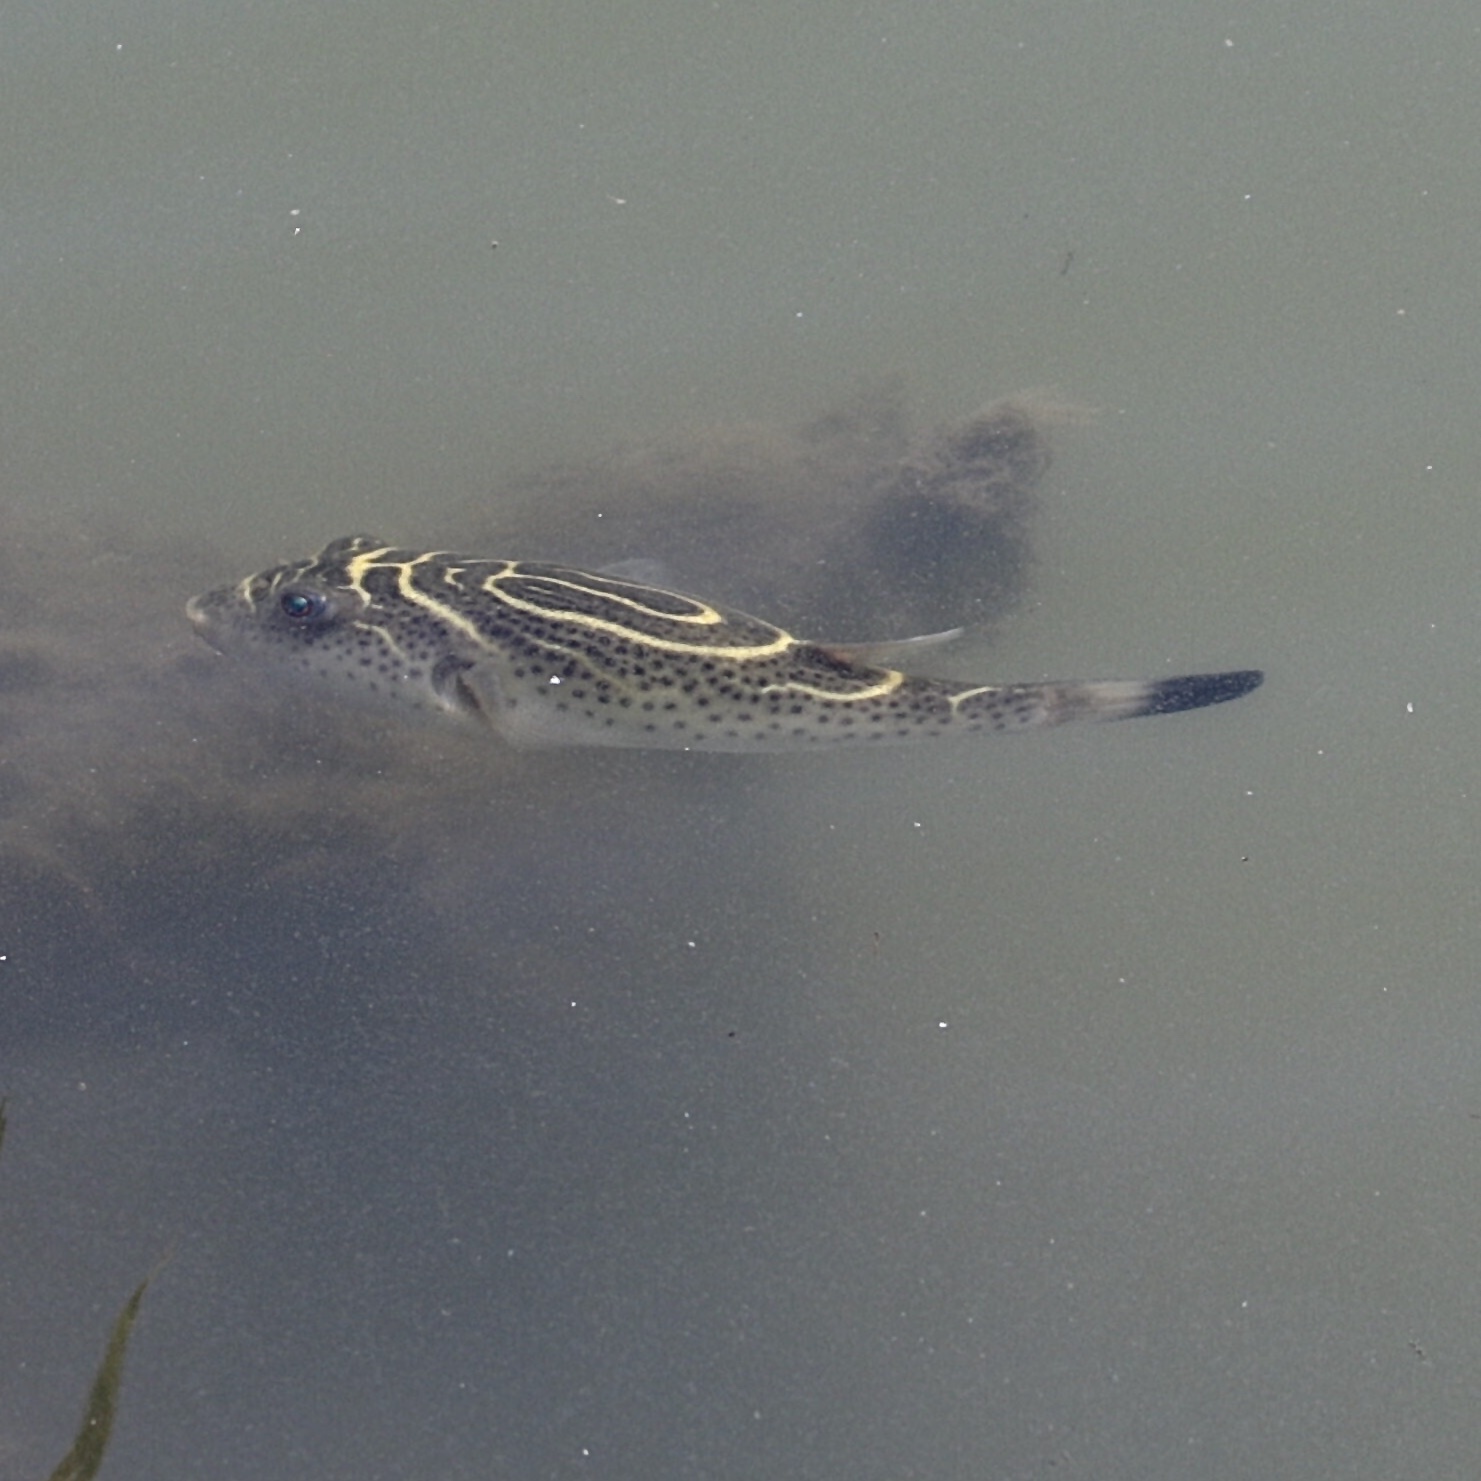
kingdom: Animalia
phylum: Chordata
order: Tetraodontiformes
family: Tetraodontidae
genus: Sphoeroides
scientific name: Sphoeroides rosenblatti
